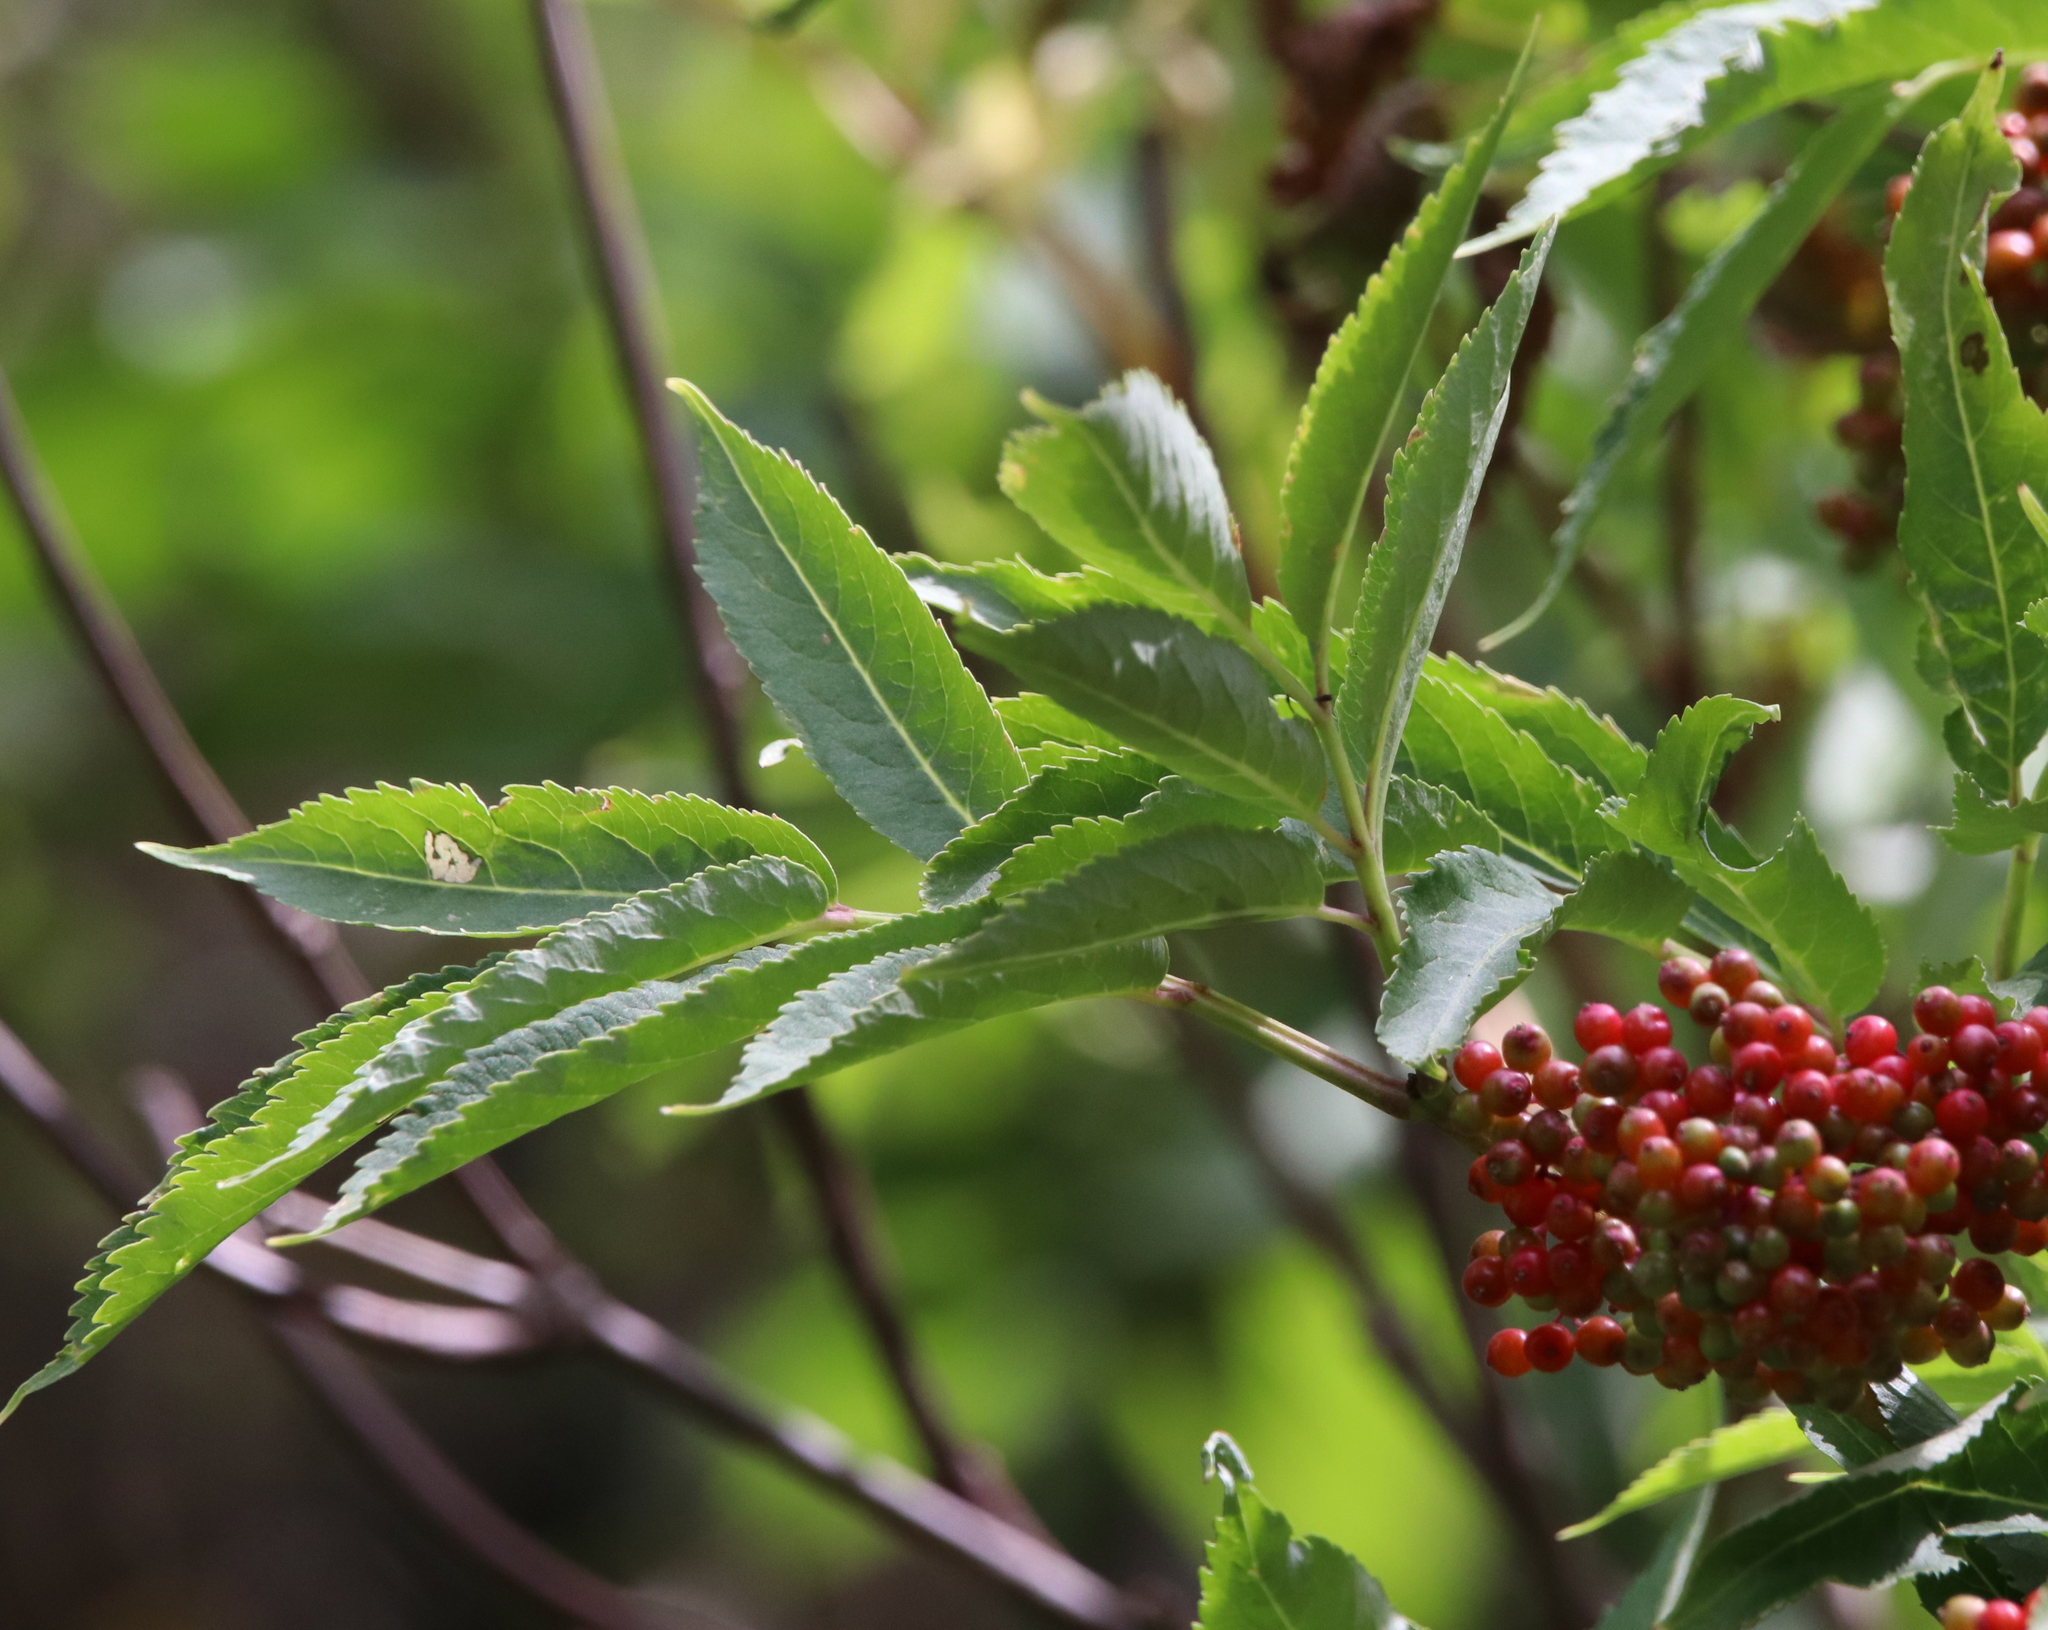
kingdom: Plantae
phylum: Tracheophyta
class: Magnoliopsida
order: Dipsacales
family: Viburnaceae
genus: Sambucus
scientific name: Sambucus racemosa
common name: Red-berried elder
